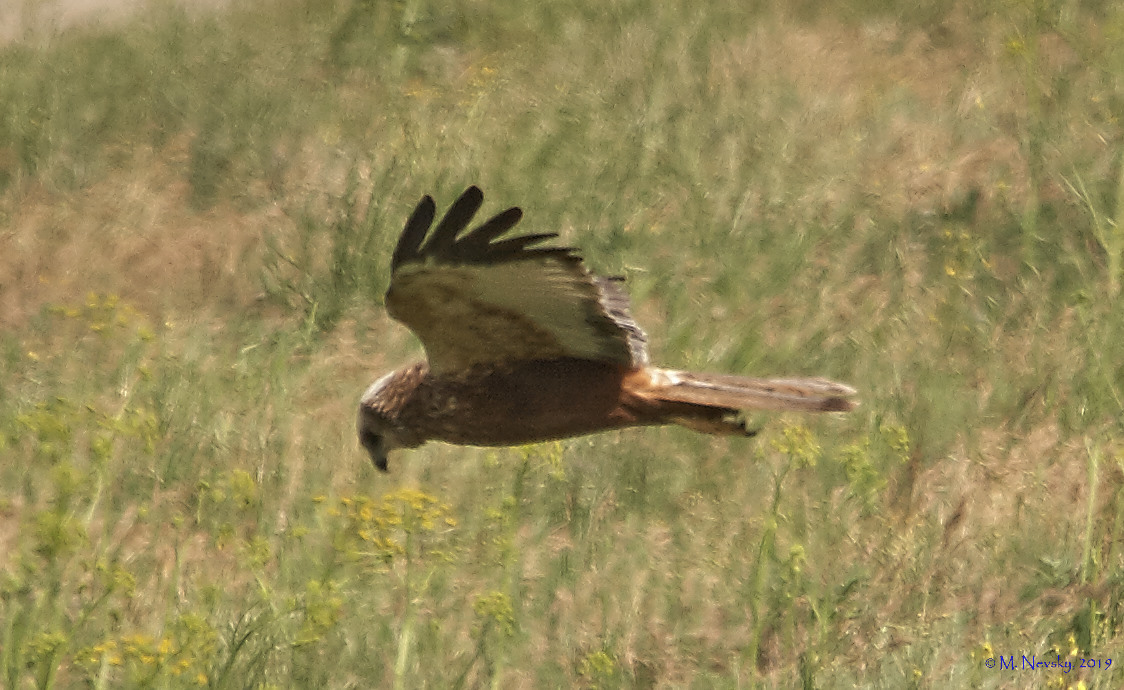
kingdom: Animalia
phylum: Chordata
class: Aves
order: Accipitriformes
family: Accipitridae
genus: Circus
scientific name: Circus aeruginosus
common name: Western marsh harrier
